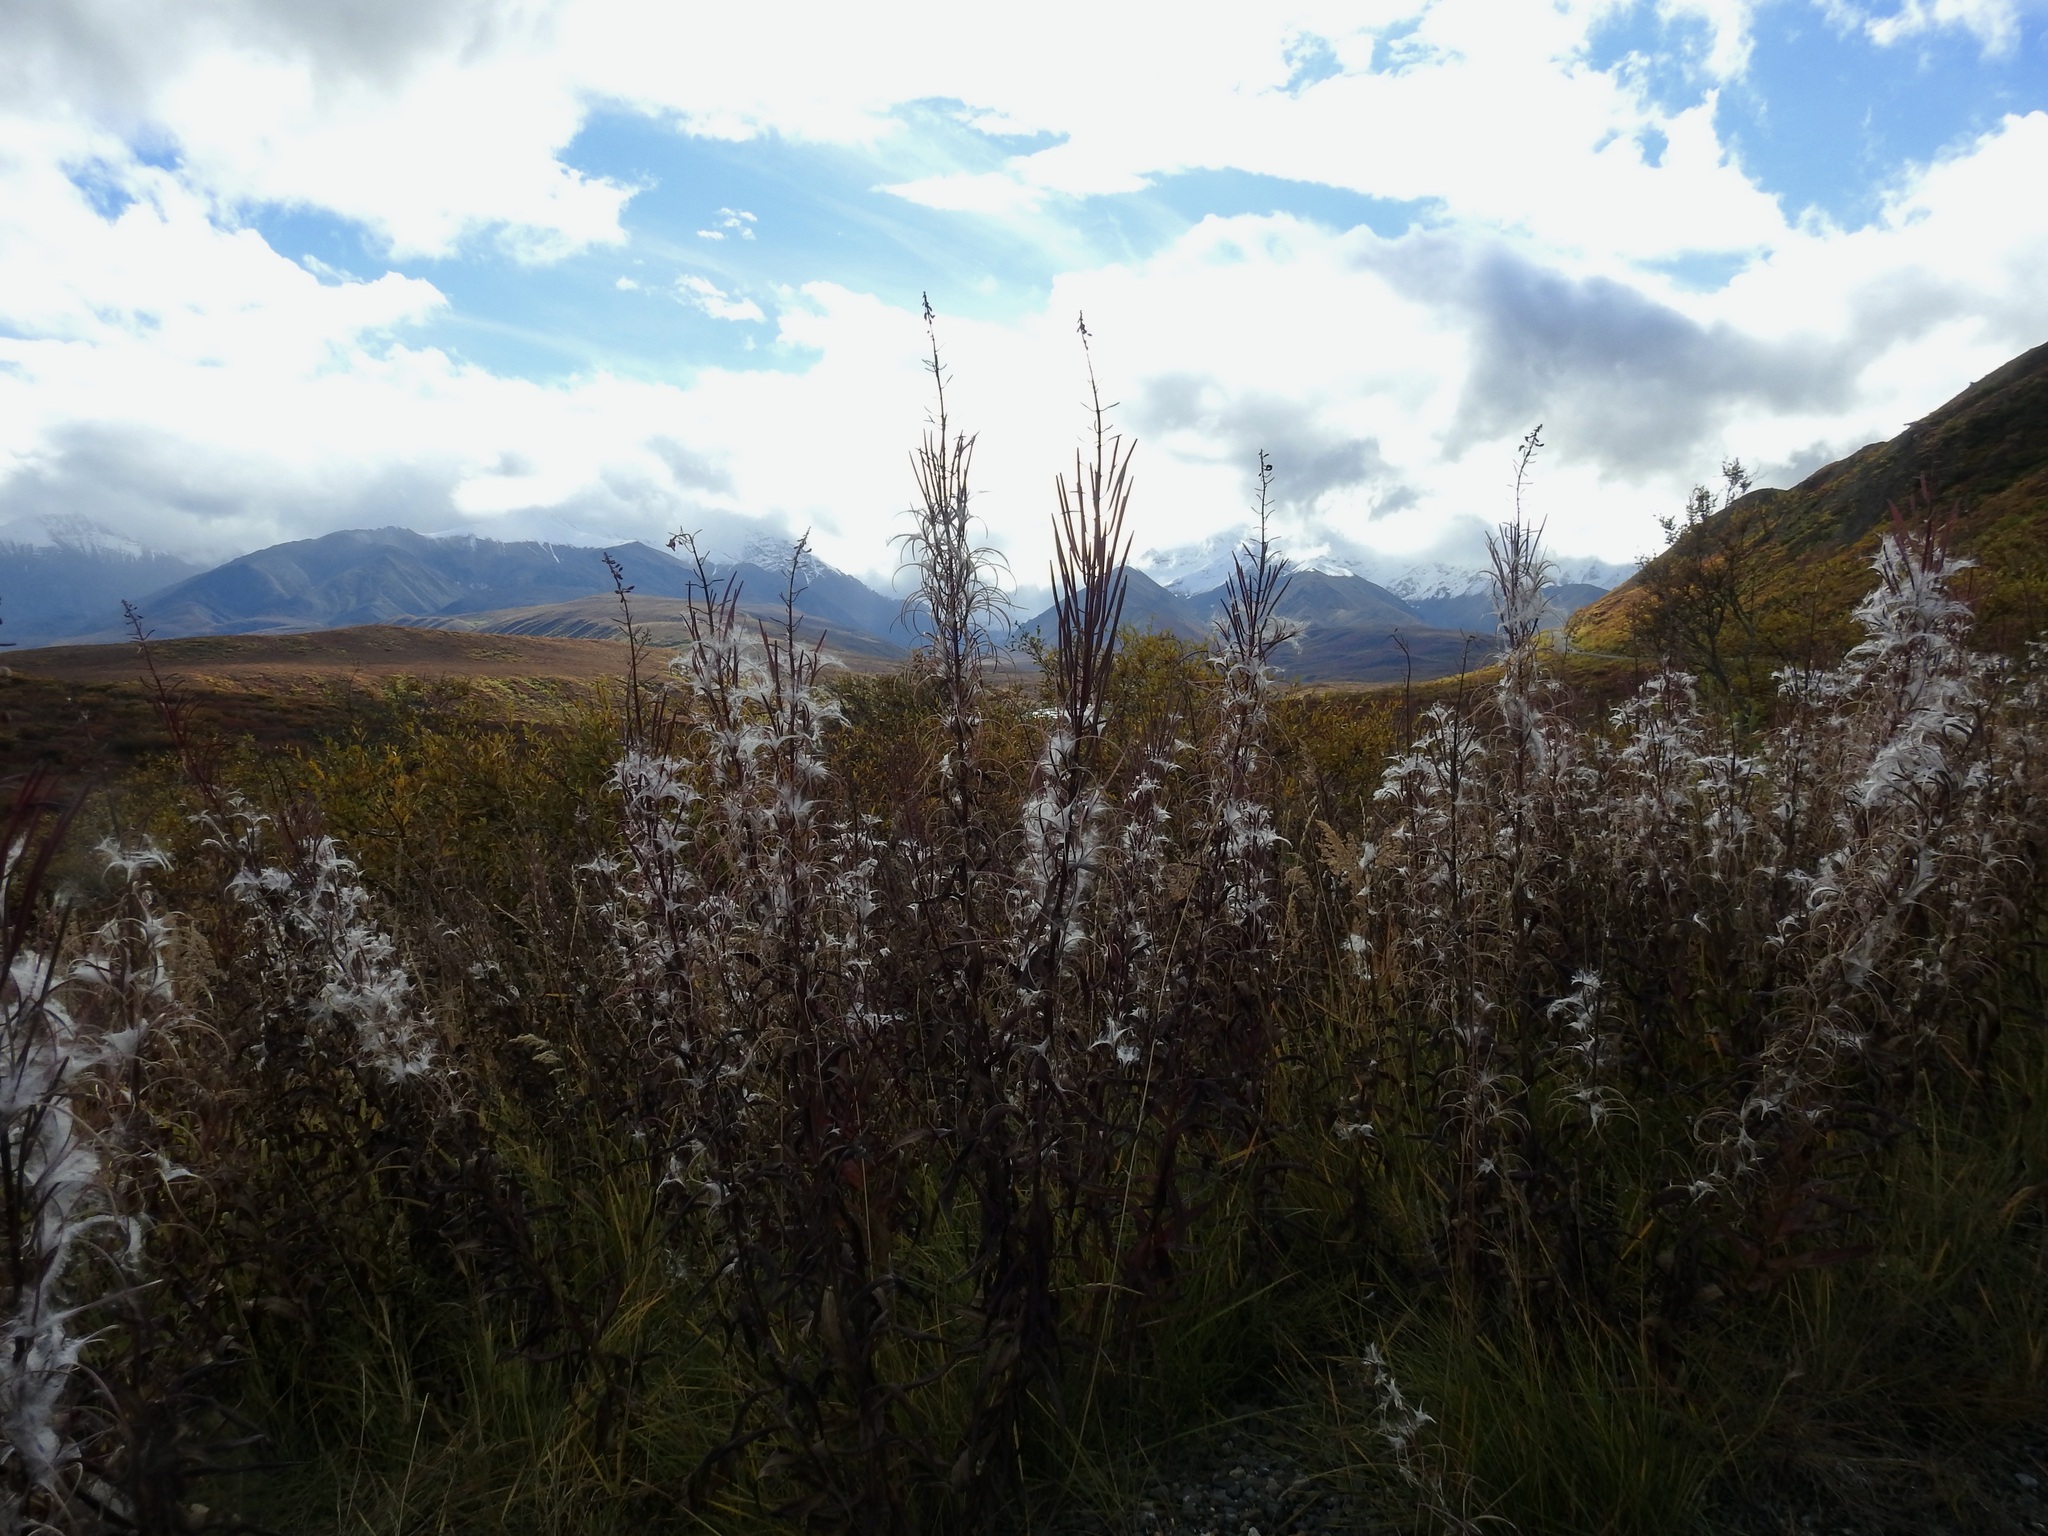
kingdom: Plantae
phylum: Tracheophyta
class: Magnoliopsida
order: Myrtales
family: Onagraceae
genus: Chamaenerion
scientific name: Chamaenerion angustifolium
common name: Fireweed
